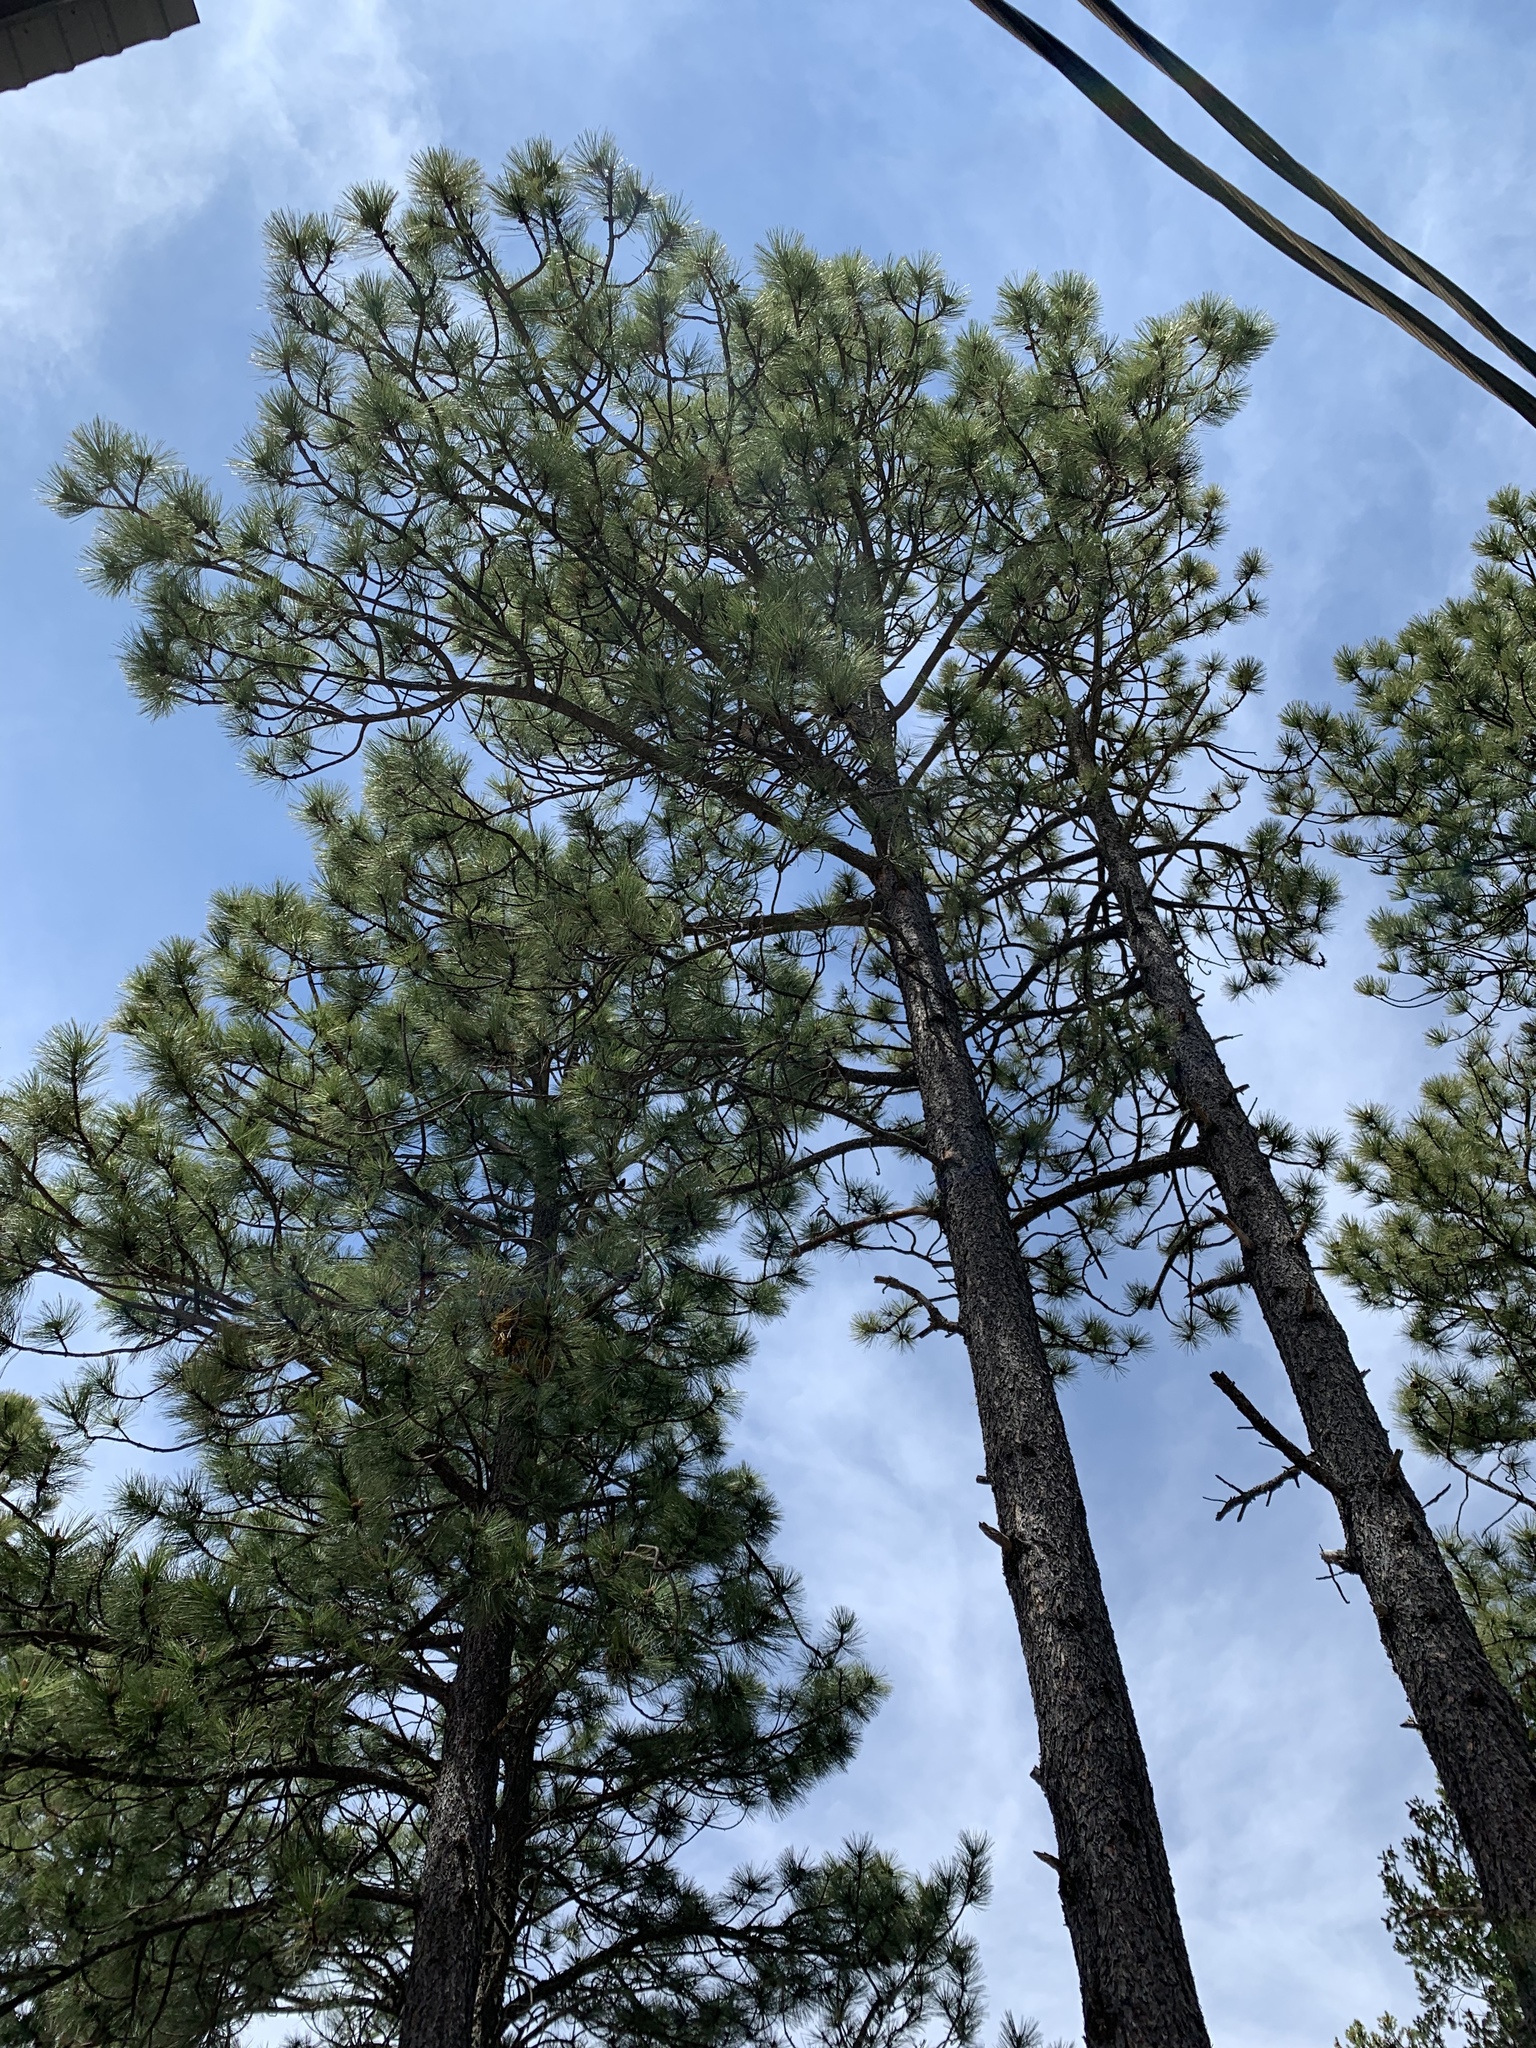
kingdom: Plantae
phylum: Tracheophyta
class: Pinopsida
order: Pinales
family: Pinaceae
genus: Pinus
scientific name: Pinus ponderosa
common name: Western yellow-pine
